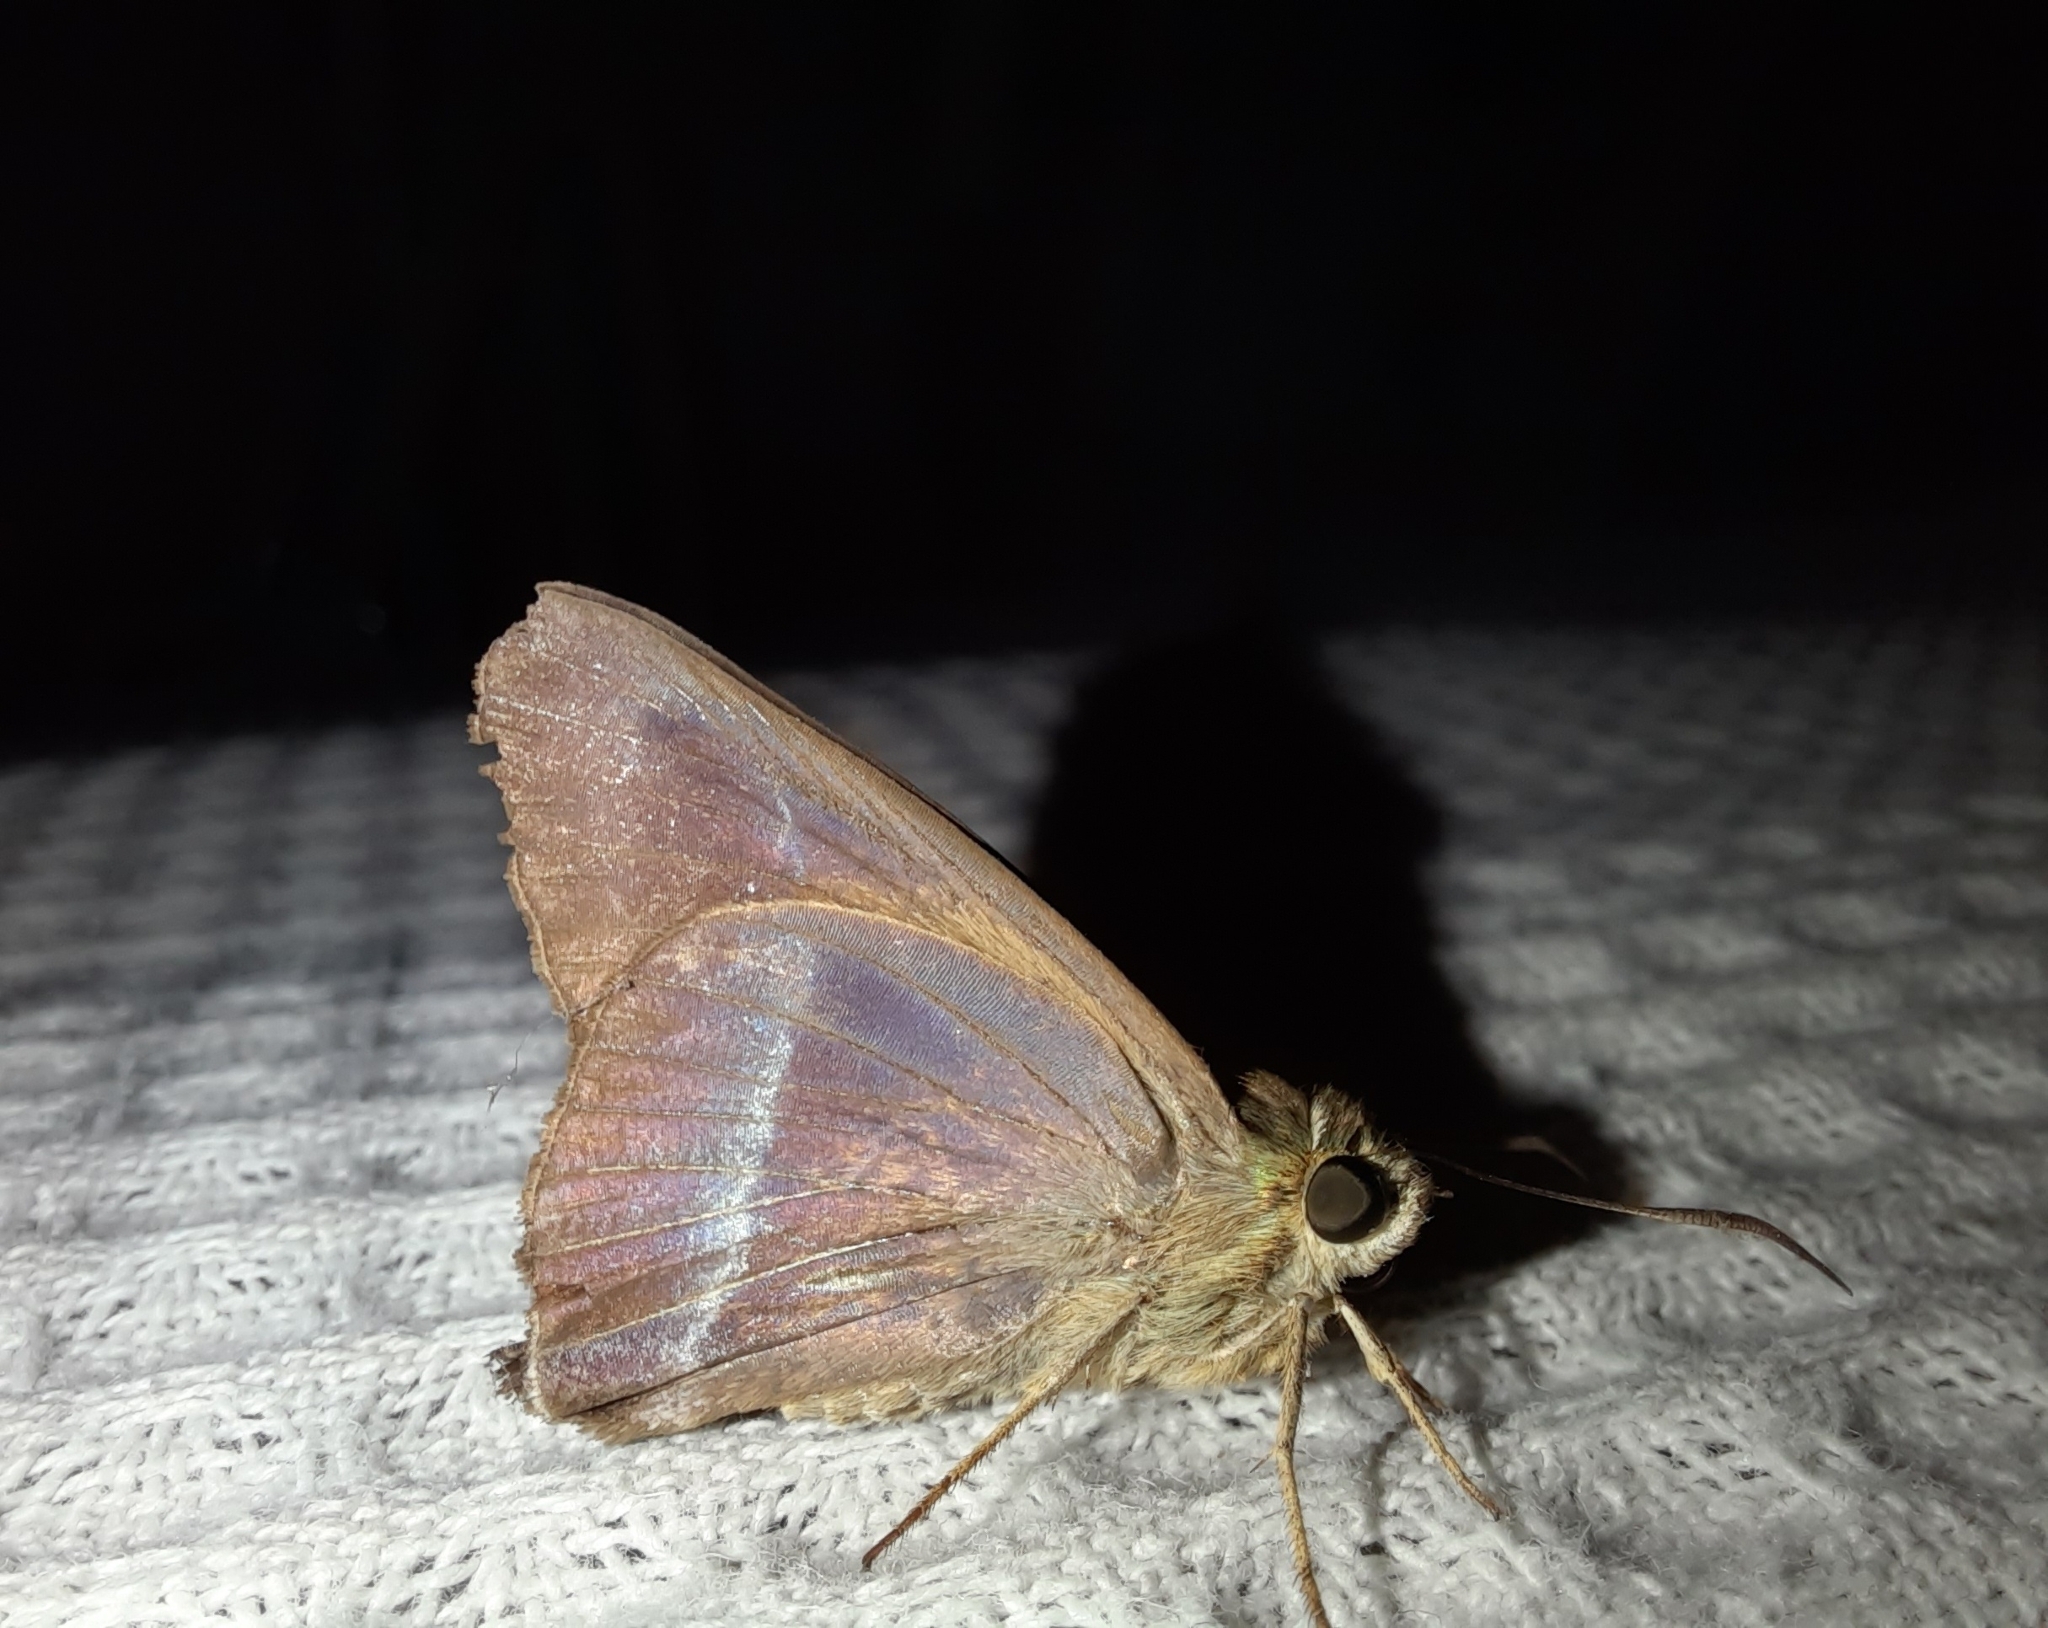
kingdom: Animalia
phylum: Arthropoda
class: Insecta
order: Lepidoptera
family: Hesperiidae
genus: Hasora
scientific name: Hasora chromus
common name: Common banded awl
